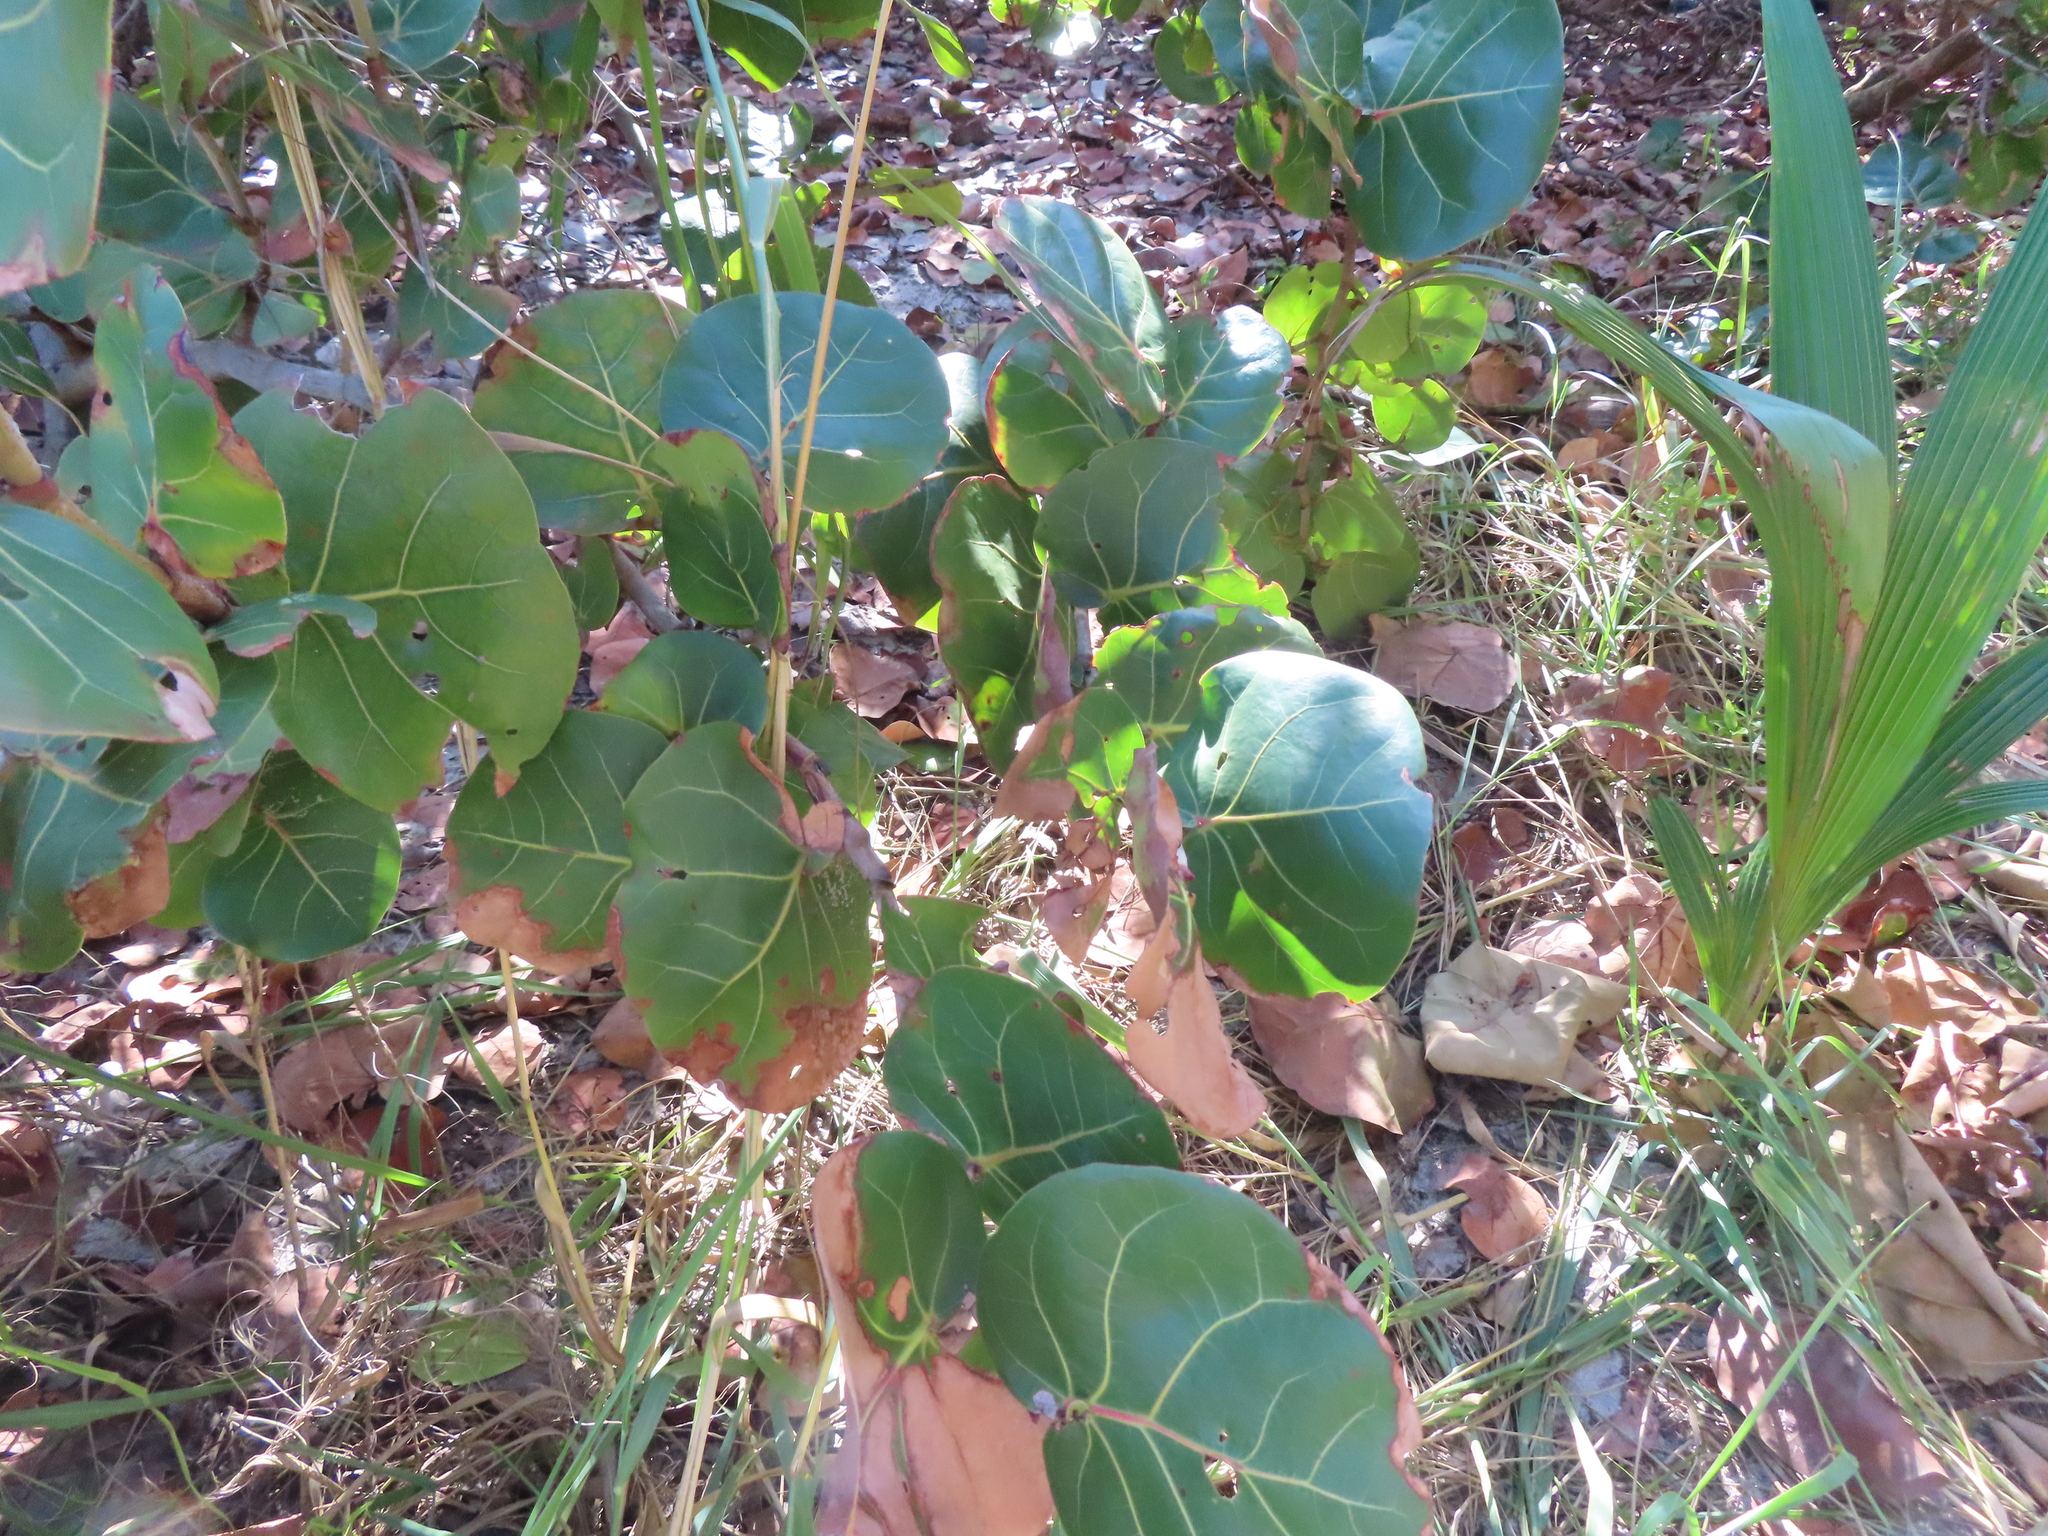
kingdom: Plantae
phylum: Tracheophyta
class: Magnoliopsida
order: Caryophyllales
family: Polygonaceae
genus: Coccoloba
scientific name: Coccoloba uvifera
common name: Seagrape
